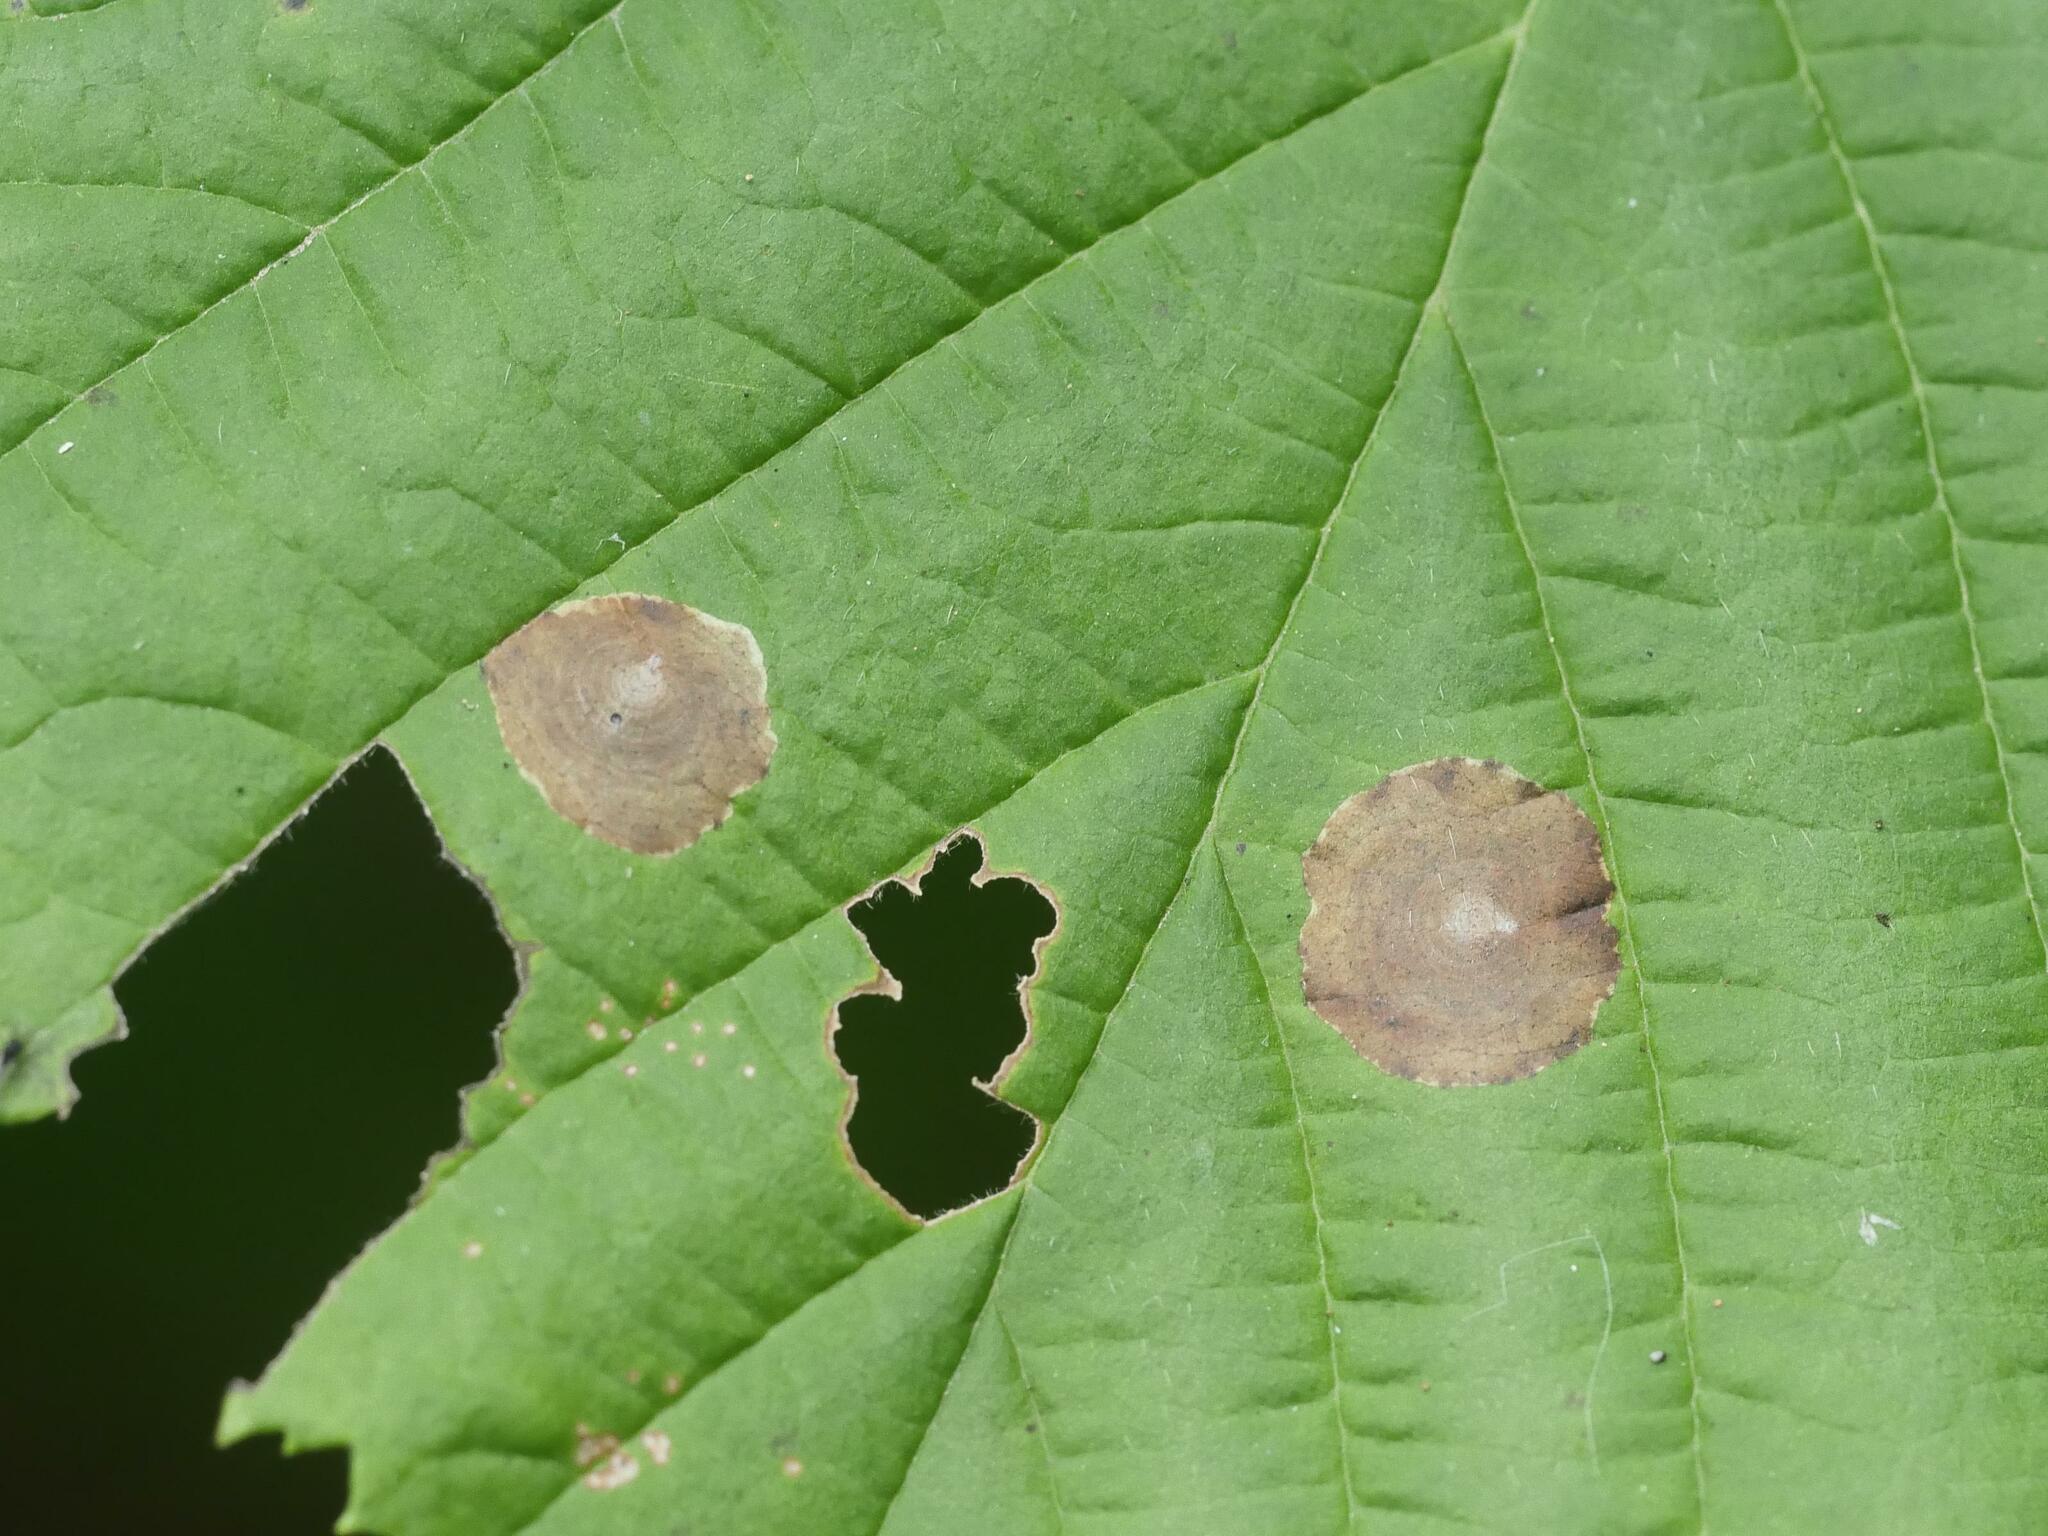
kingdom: Animalia
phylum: Arthropoda
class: Insecta
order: Lepidoptera
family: Gracillariidae
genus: Cameraria
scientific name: Cameraria corylisella
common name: Hazel blotchminer
